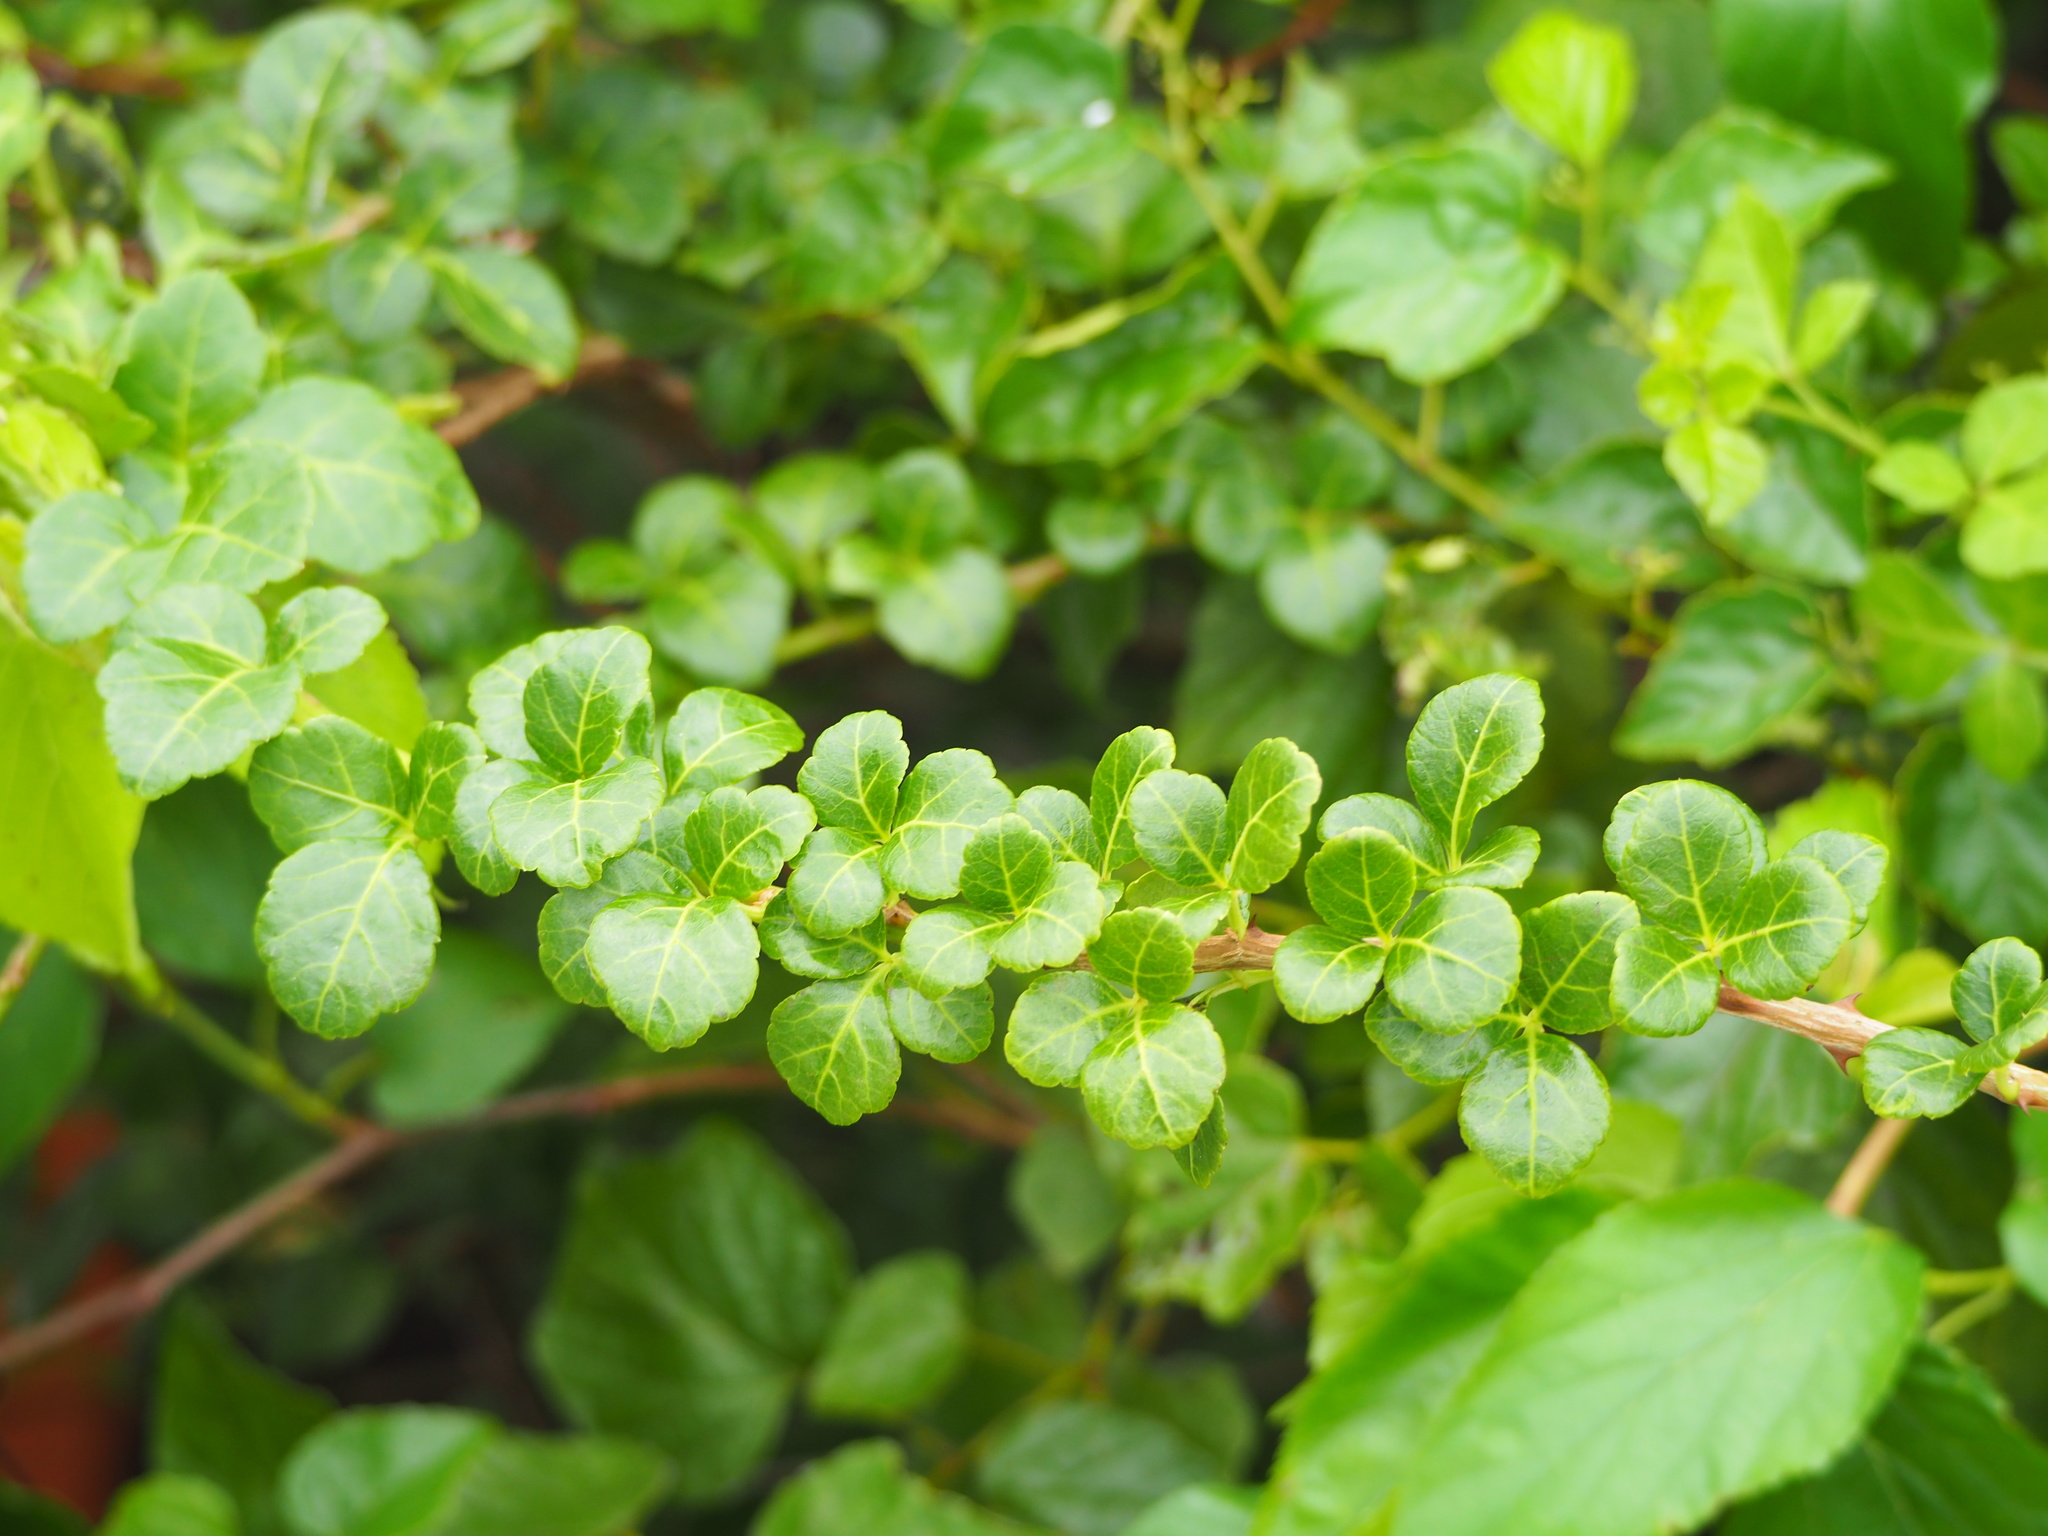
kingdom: Plantae
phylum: Tracheophyta
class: Magnoliopsida
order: Apiales
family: Araliaceae
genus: Eleutherococcus
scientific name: Eleutherococcus trifoliatus
